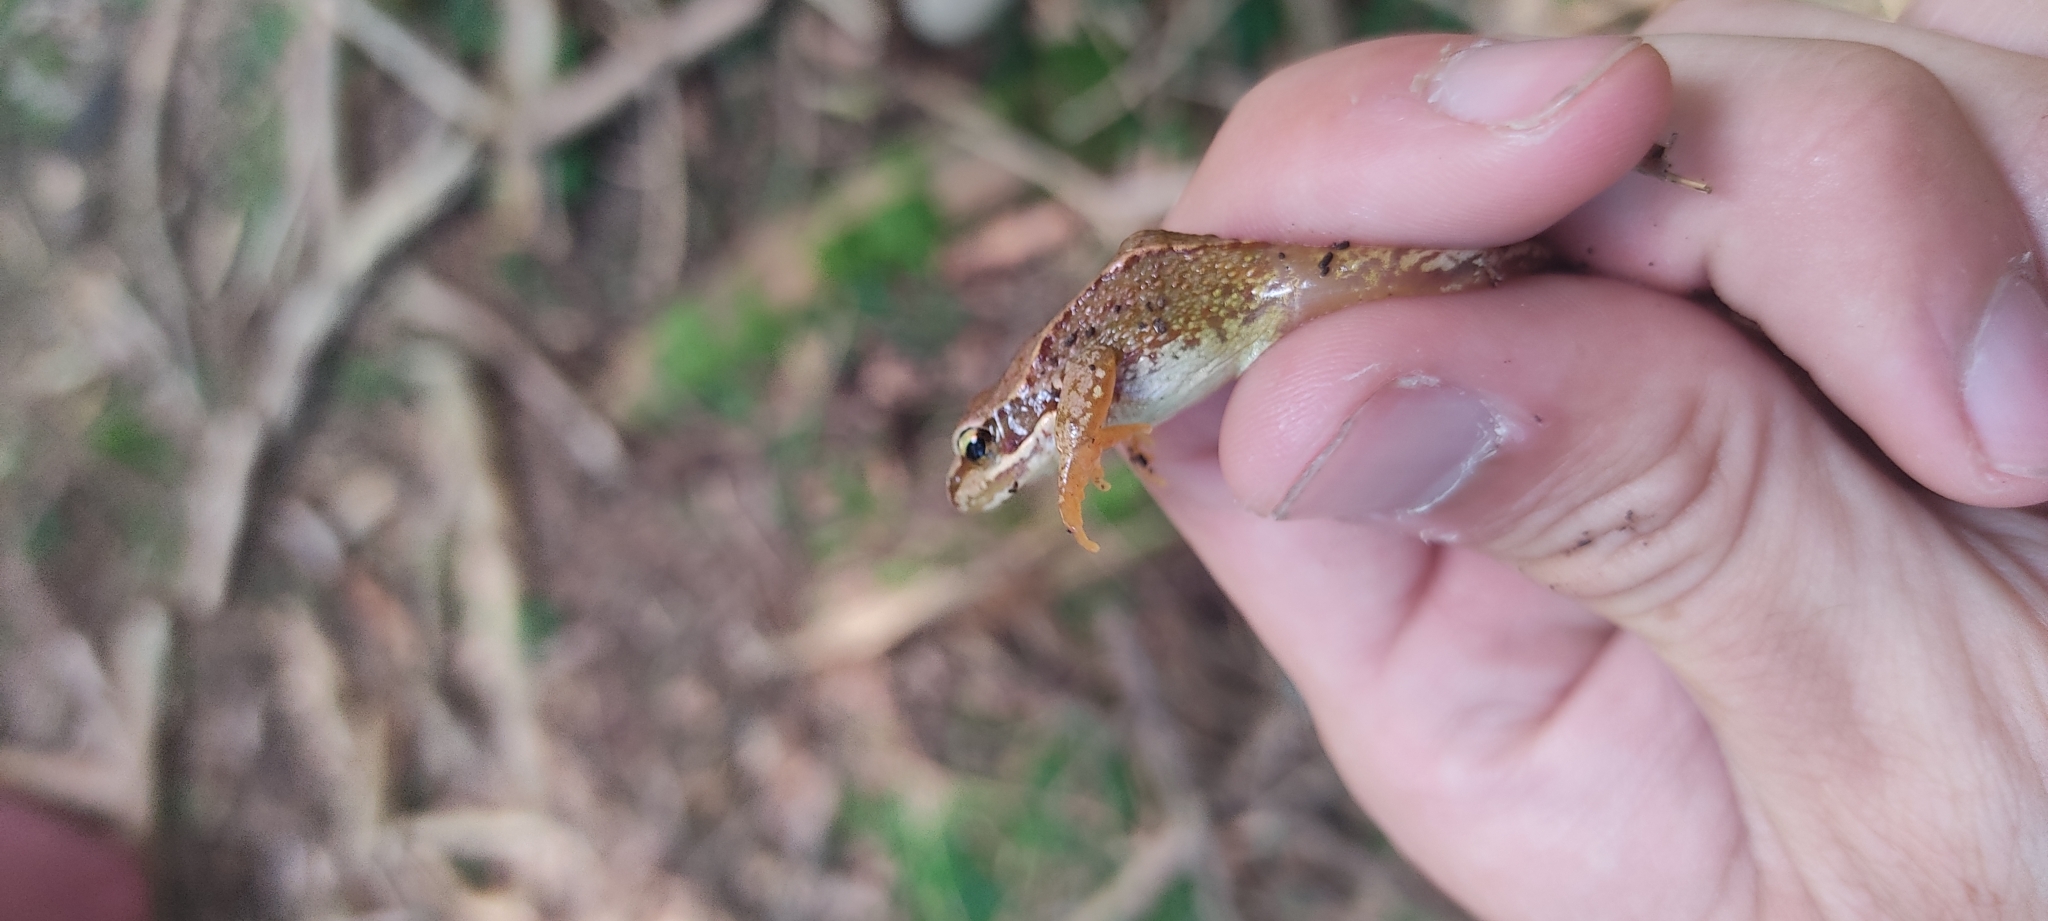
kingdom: Animalia
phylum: Chordata
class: Amphibia
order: Anura
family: Ranidae
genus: Rana
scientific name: Rana temporaria
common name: Common frog
